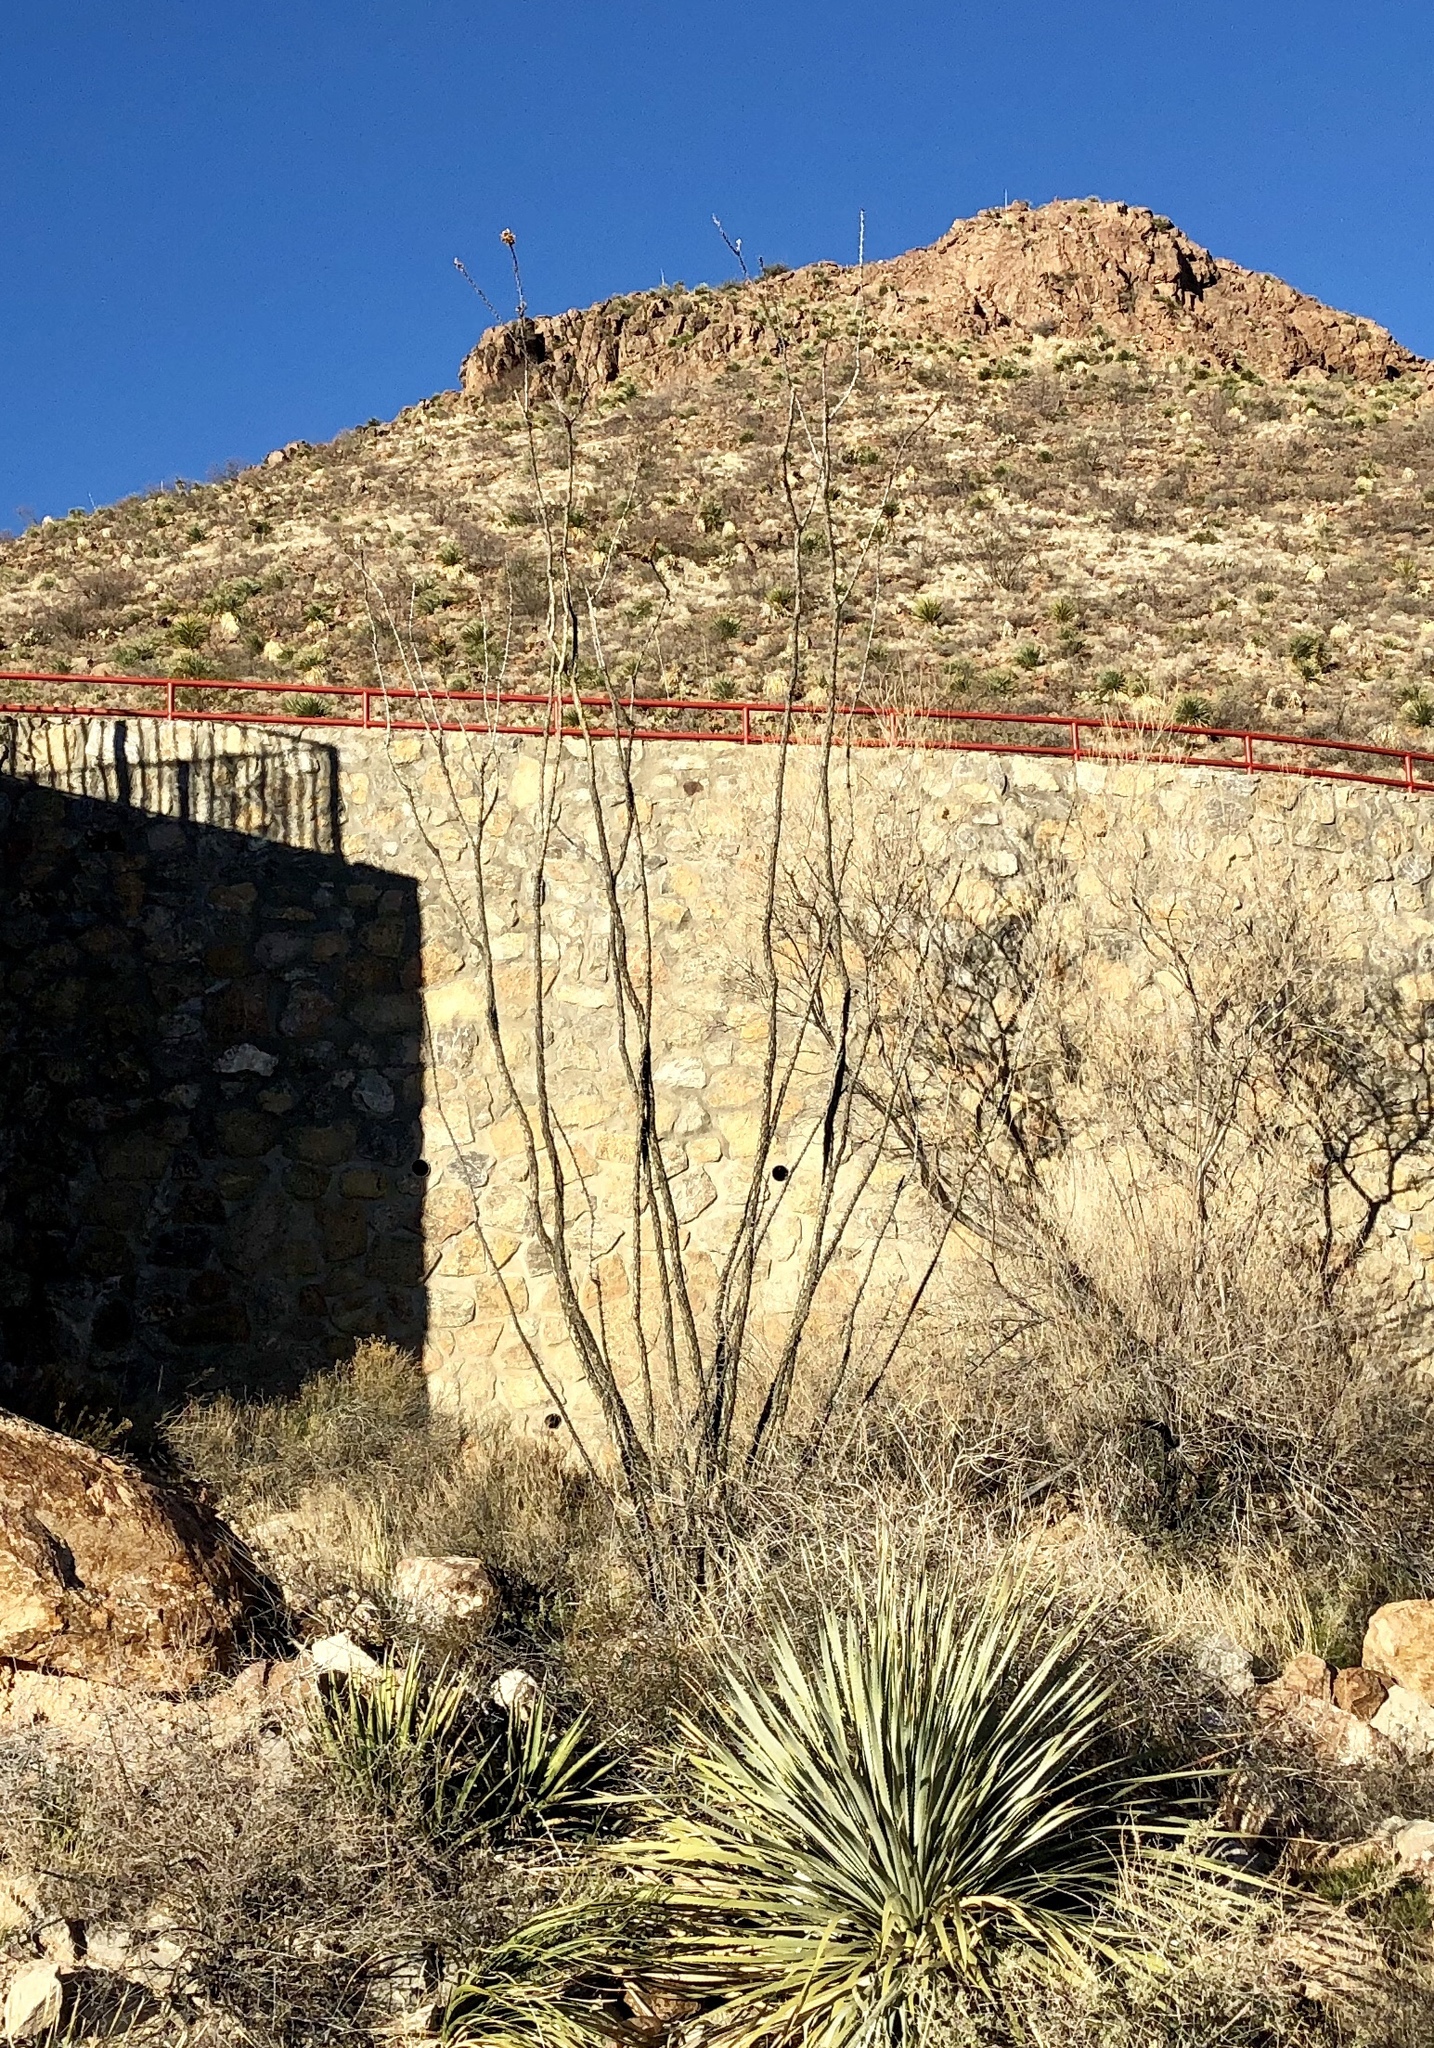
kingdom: Plantae
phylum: Tracheophyta
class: Magnoliopsida
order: Ericales
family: Fouquieriaceae
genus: Fouquieria
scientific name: Fouquieria splendens
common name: Vine-cactus
